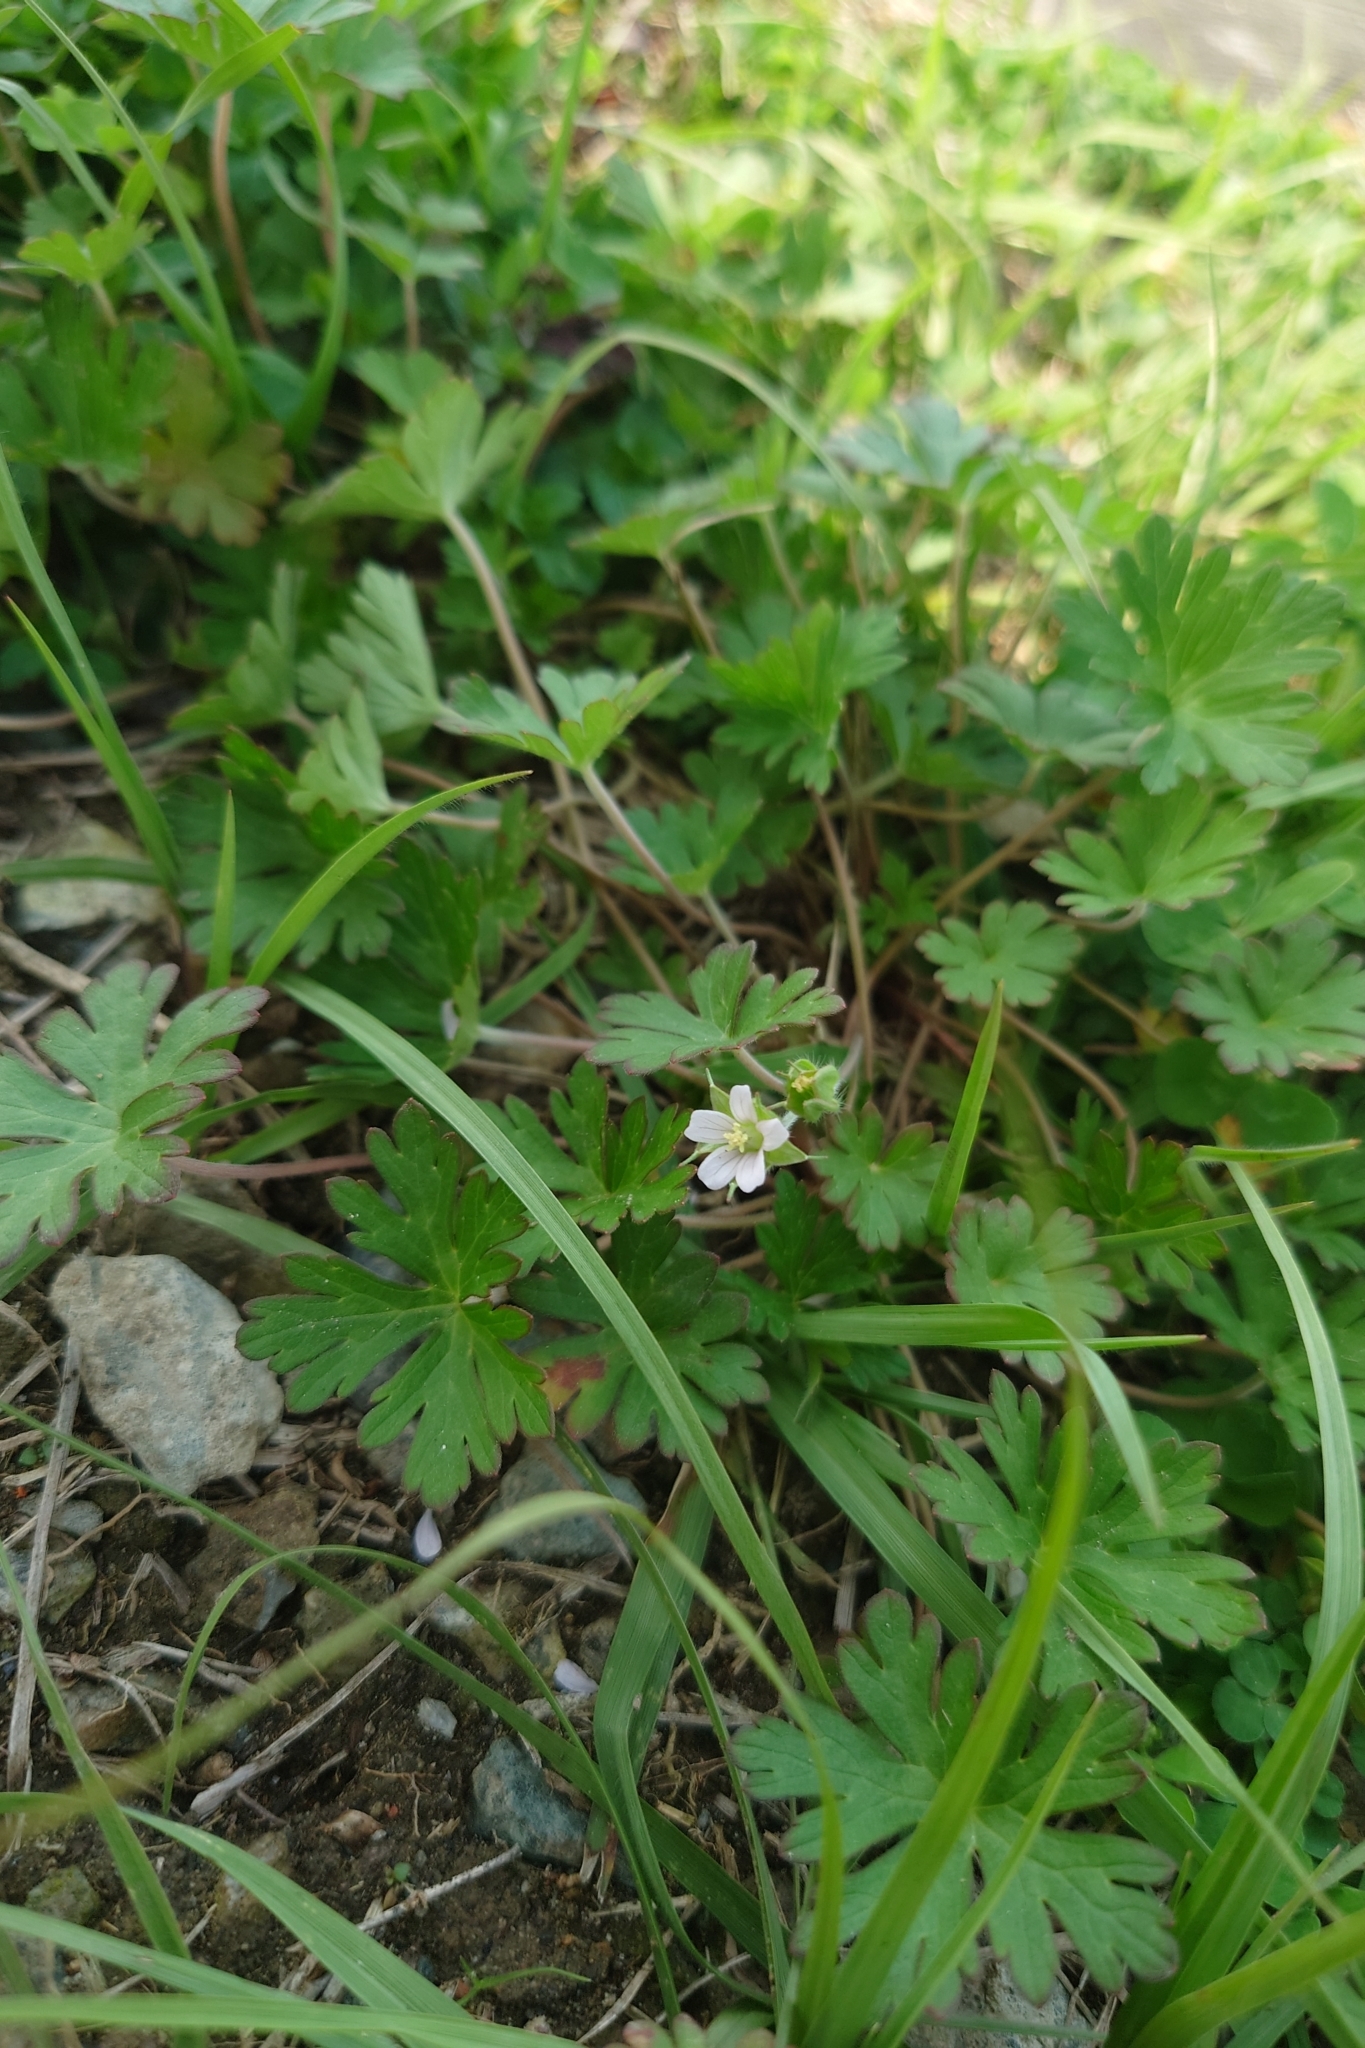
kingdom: Plantae
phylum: Tracheophyta
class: Magnoliopsida
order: Geraniales
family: Geraniaceae
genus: Geranium
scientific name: Geranium carolinianum
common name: Carolina crane's-bill
